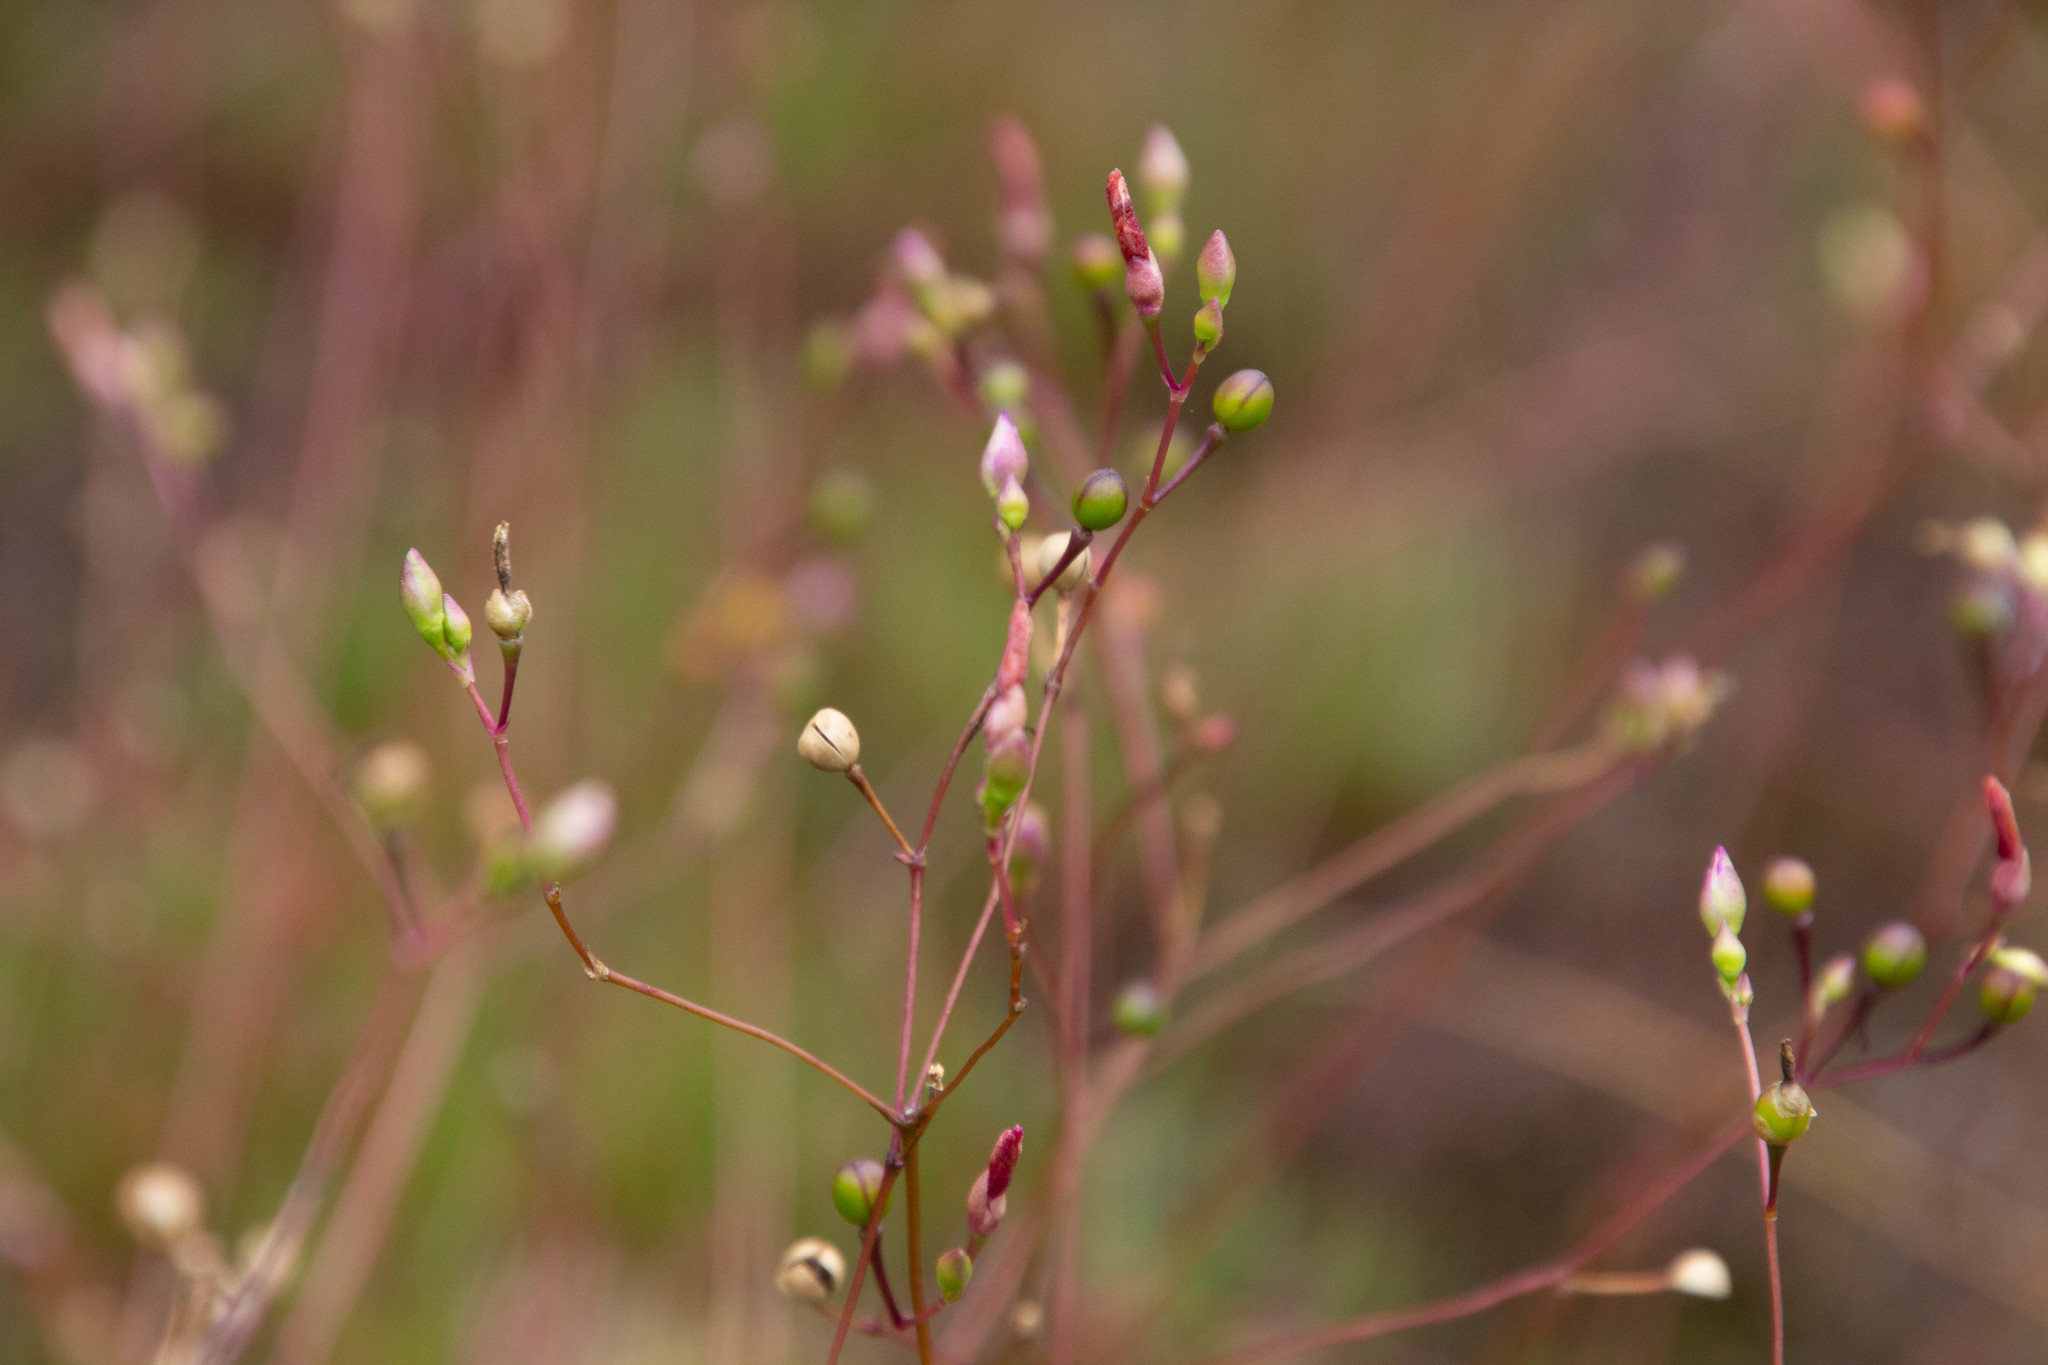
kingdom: Plantae
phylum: Tracheophyta
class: Magnoliopsida
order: Caryophyllales
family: Montiaceae
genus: Phemeranthus
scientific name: Phemeranthus mengesii
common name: Menges' fameflower
